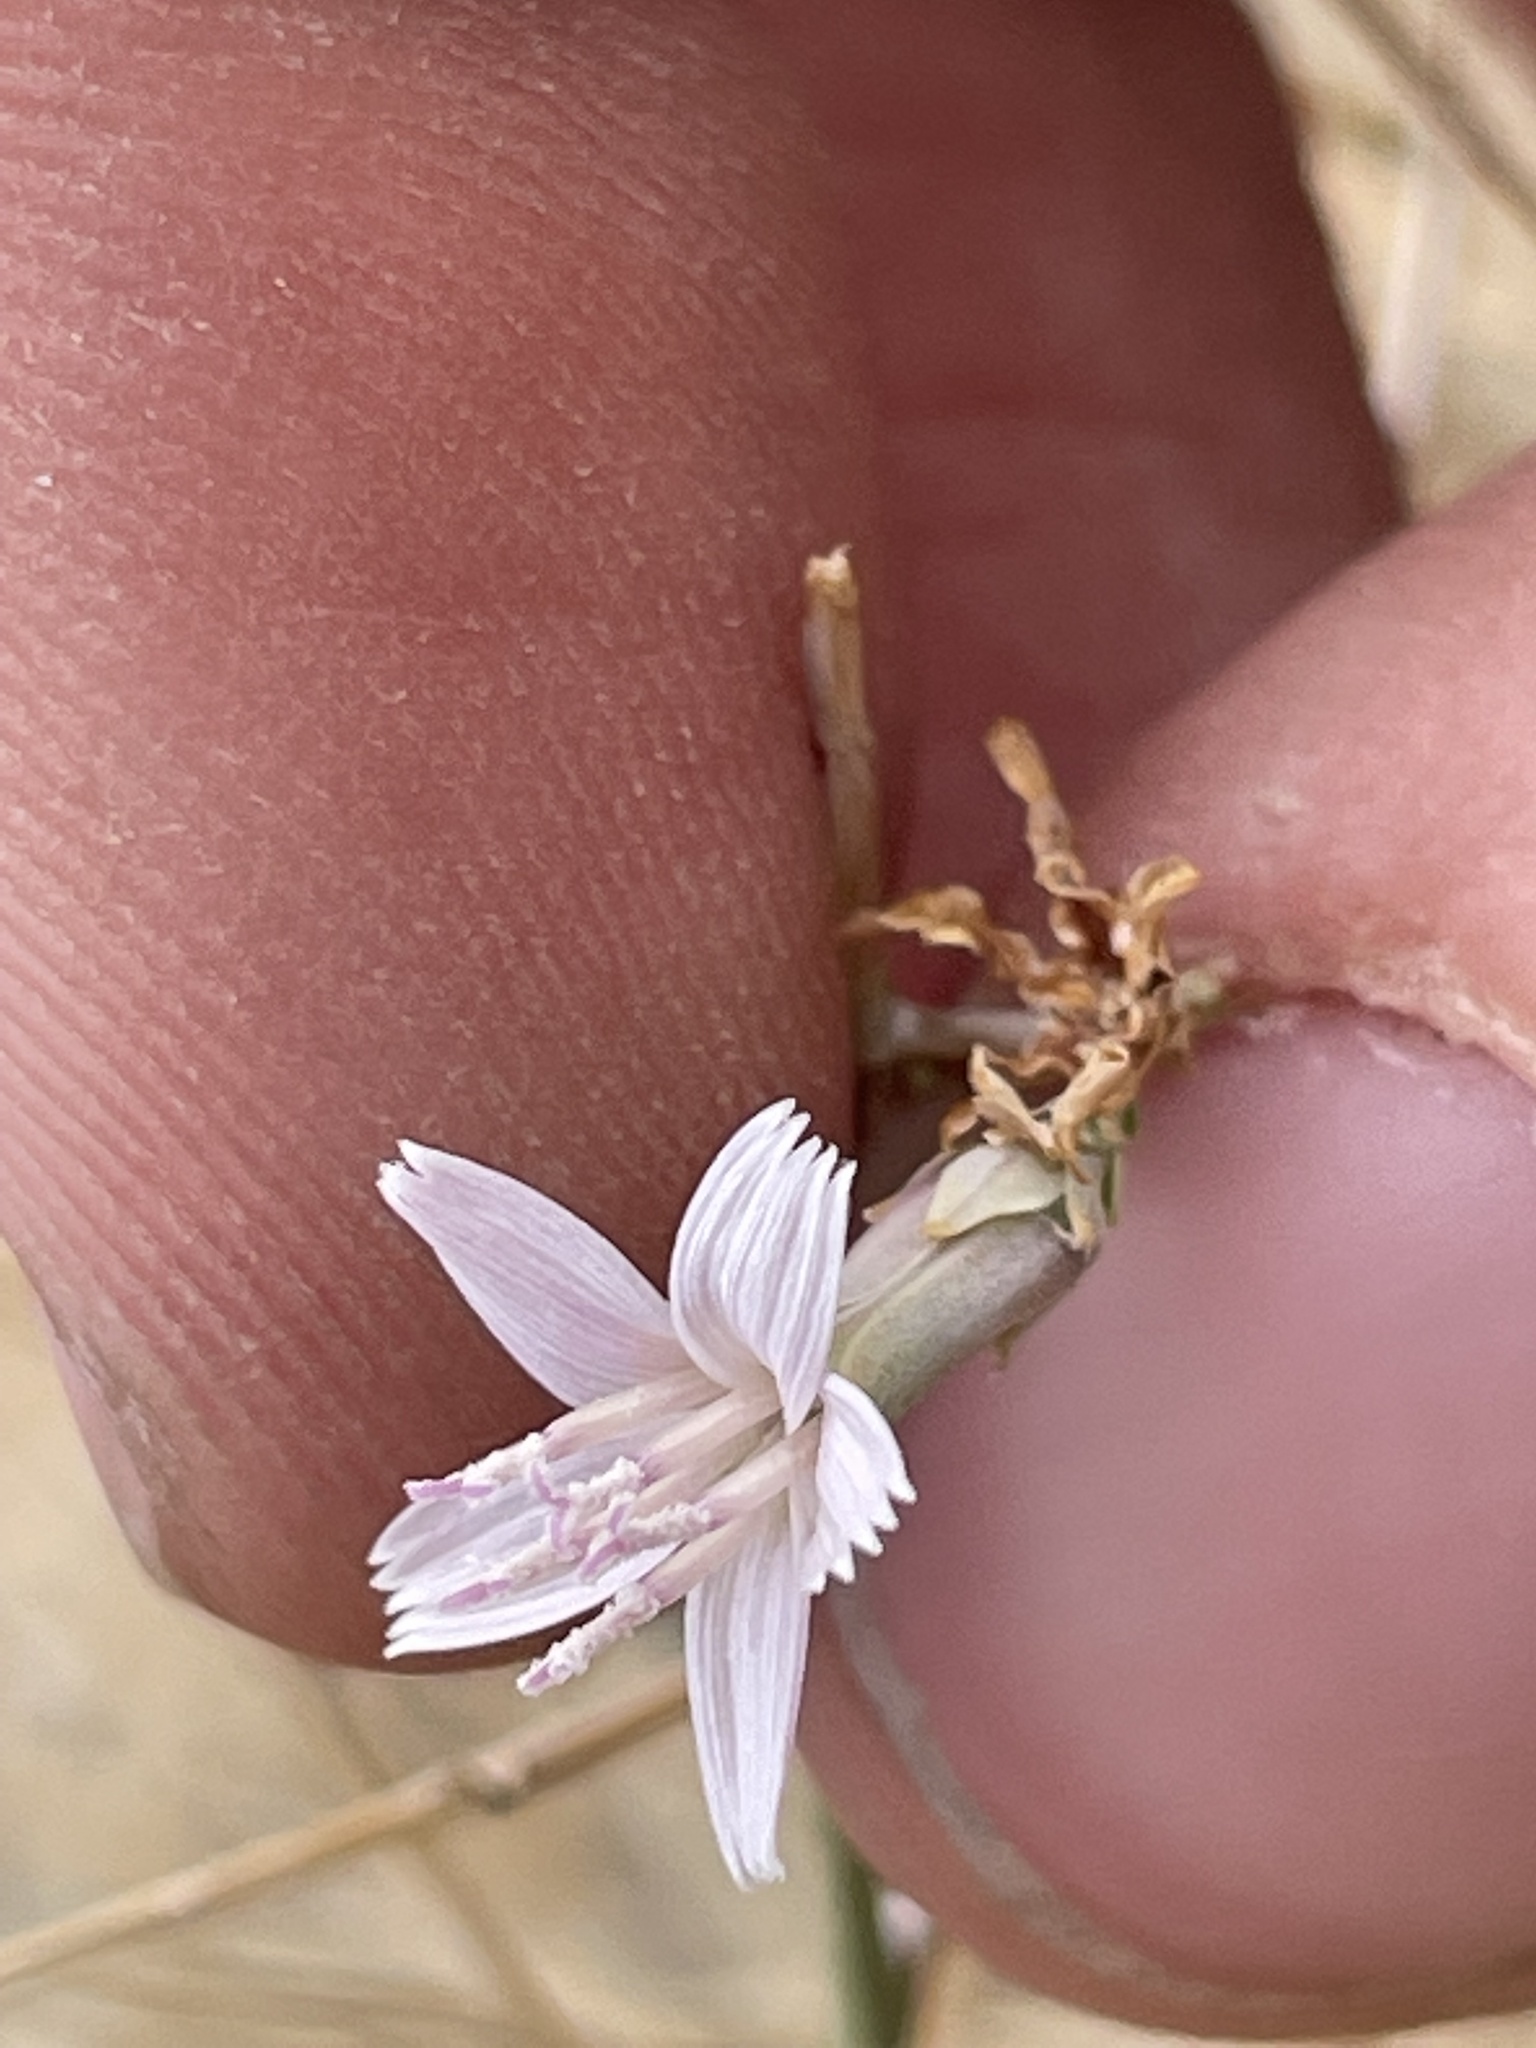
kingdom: Plantae
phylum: Tracheophyta
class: Magnoliopsida
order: Asterales
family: Asteraceae
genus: Stephanomeria
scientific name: Stephanomeria pauciflora
